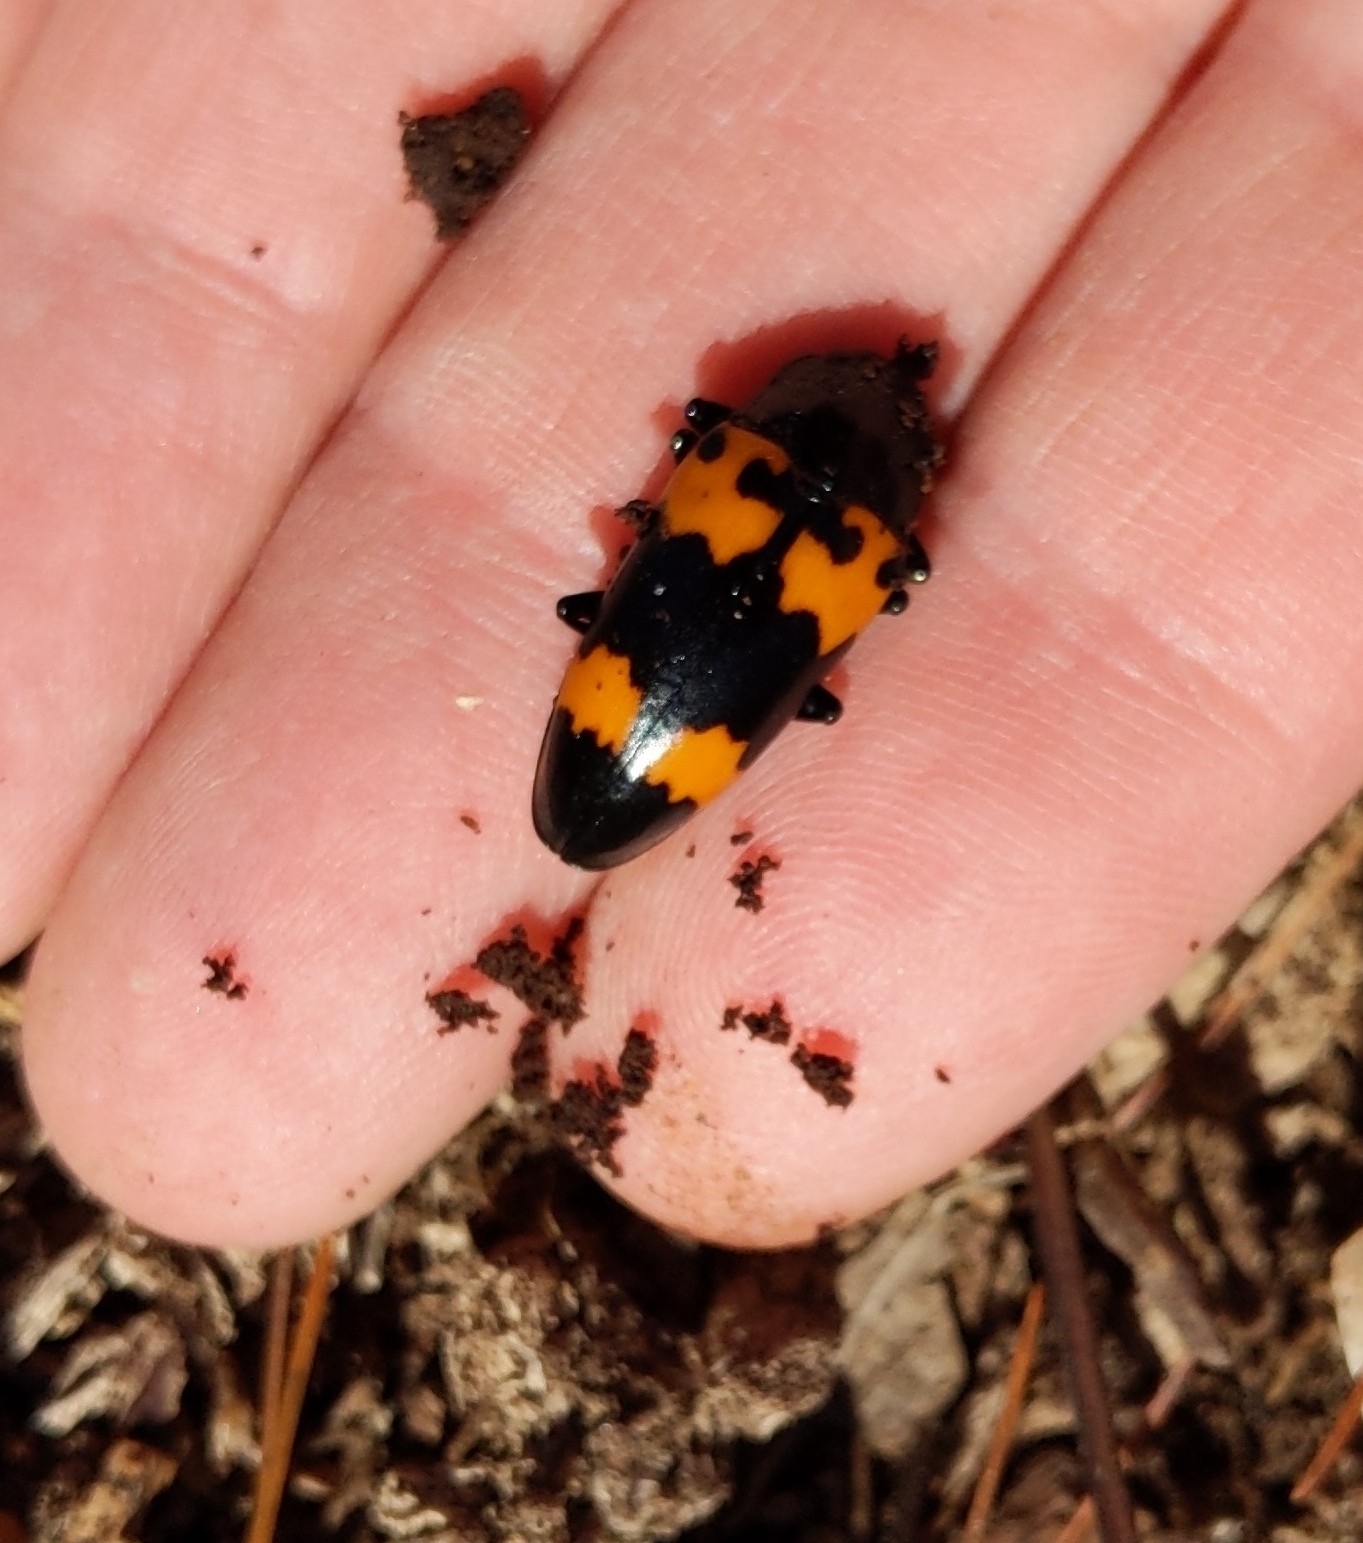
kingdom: Animalia
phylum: Arthropoda
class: Insecta
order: Coleoptera
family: Erotylidae
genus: Megalodacne
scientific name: Megalodacne heros
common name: Pleasing fungus beetle
